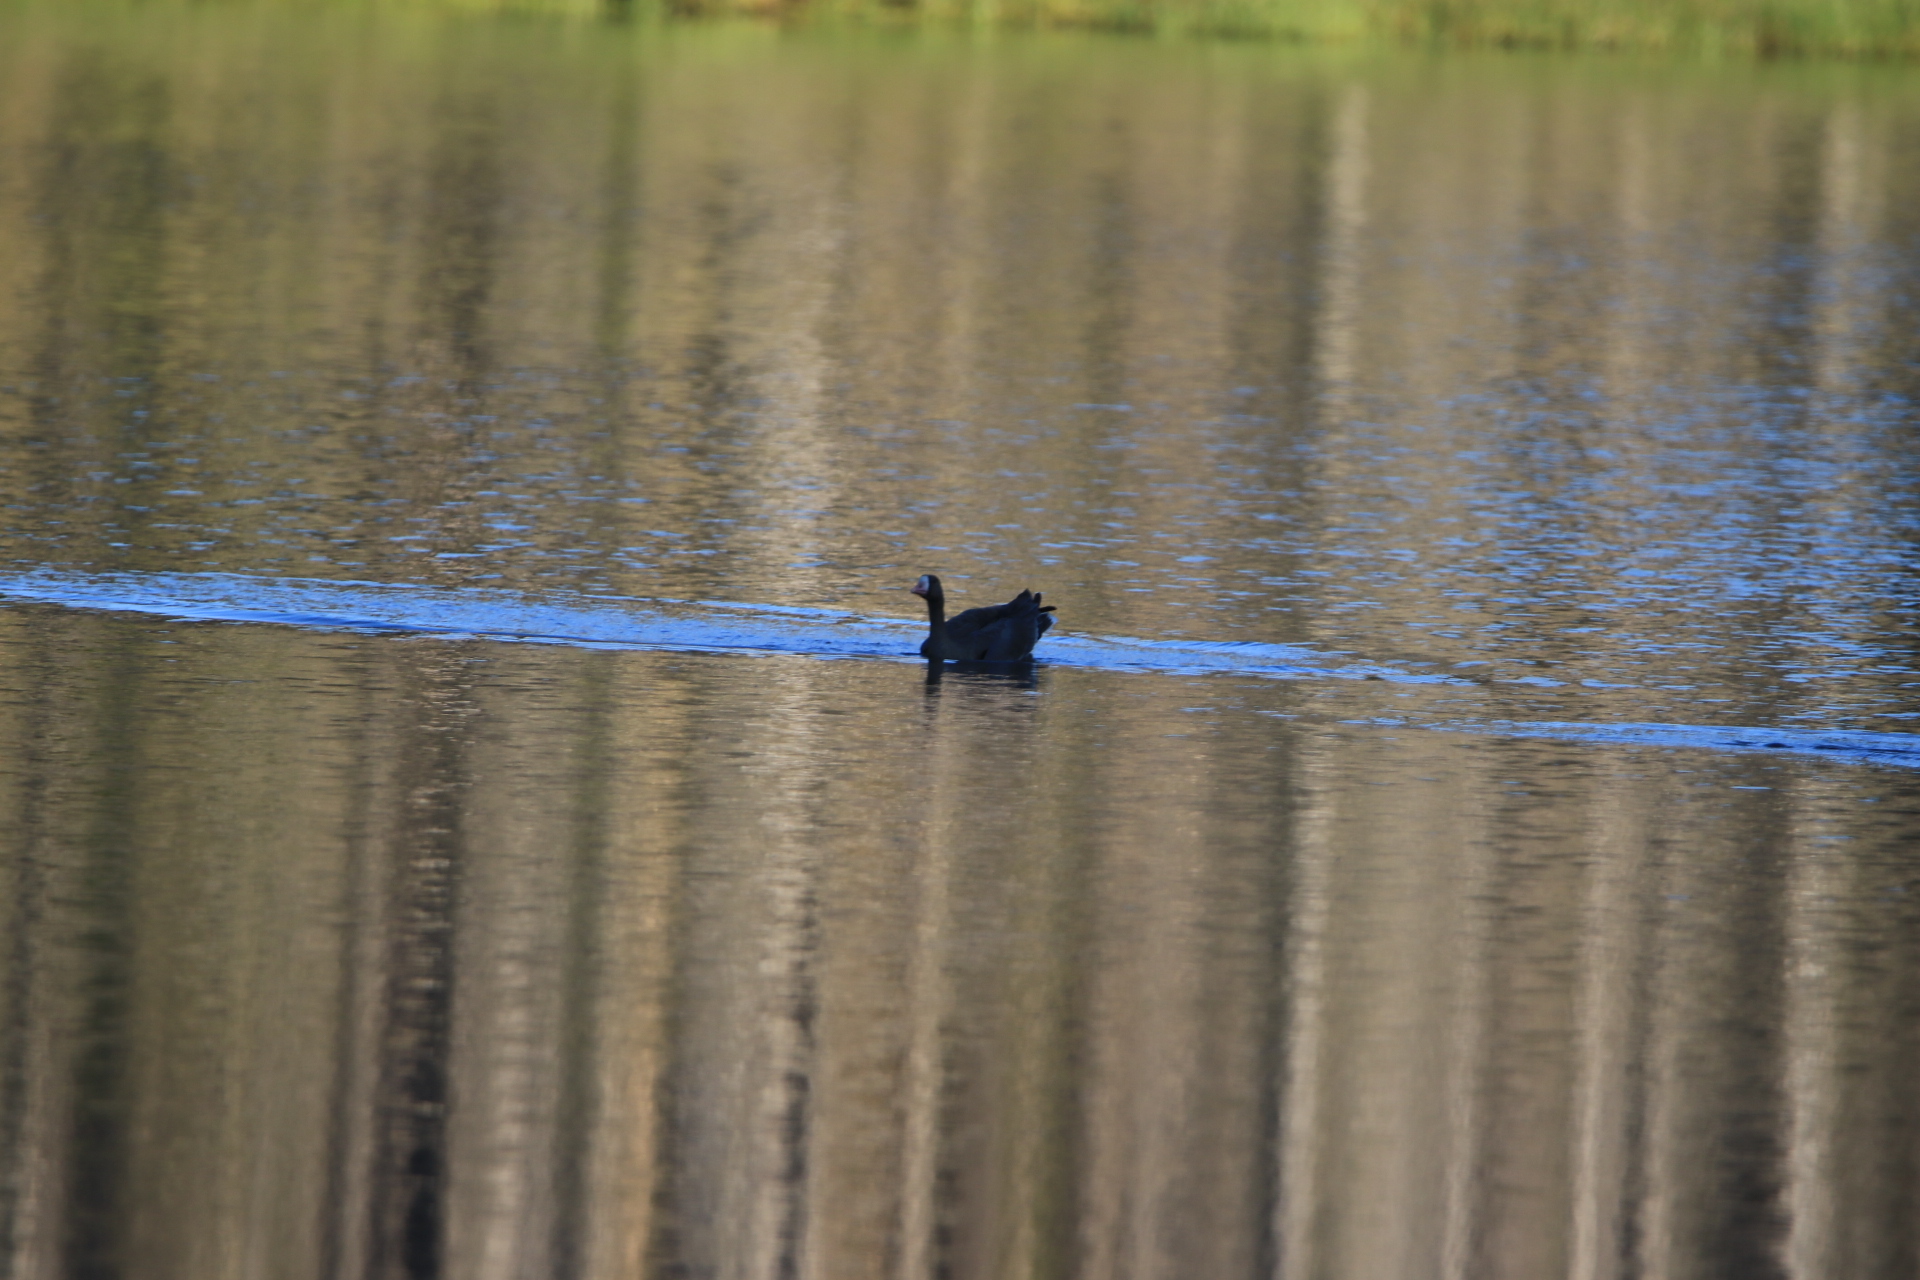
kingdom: Animalia
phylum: Chordata
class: Aves
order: Anseriformes
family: Anatidae
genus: Anser
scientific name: Anser albifrons
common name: Greater white-fronted goose
